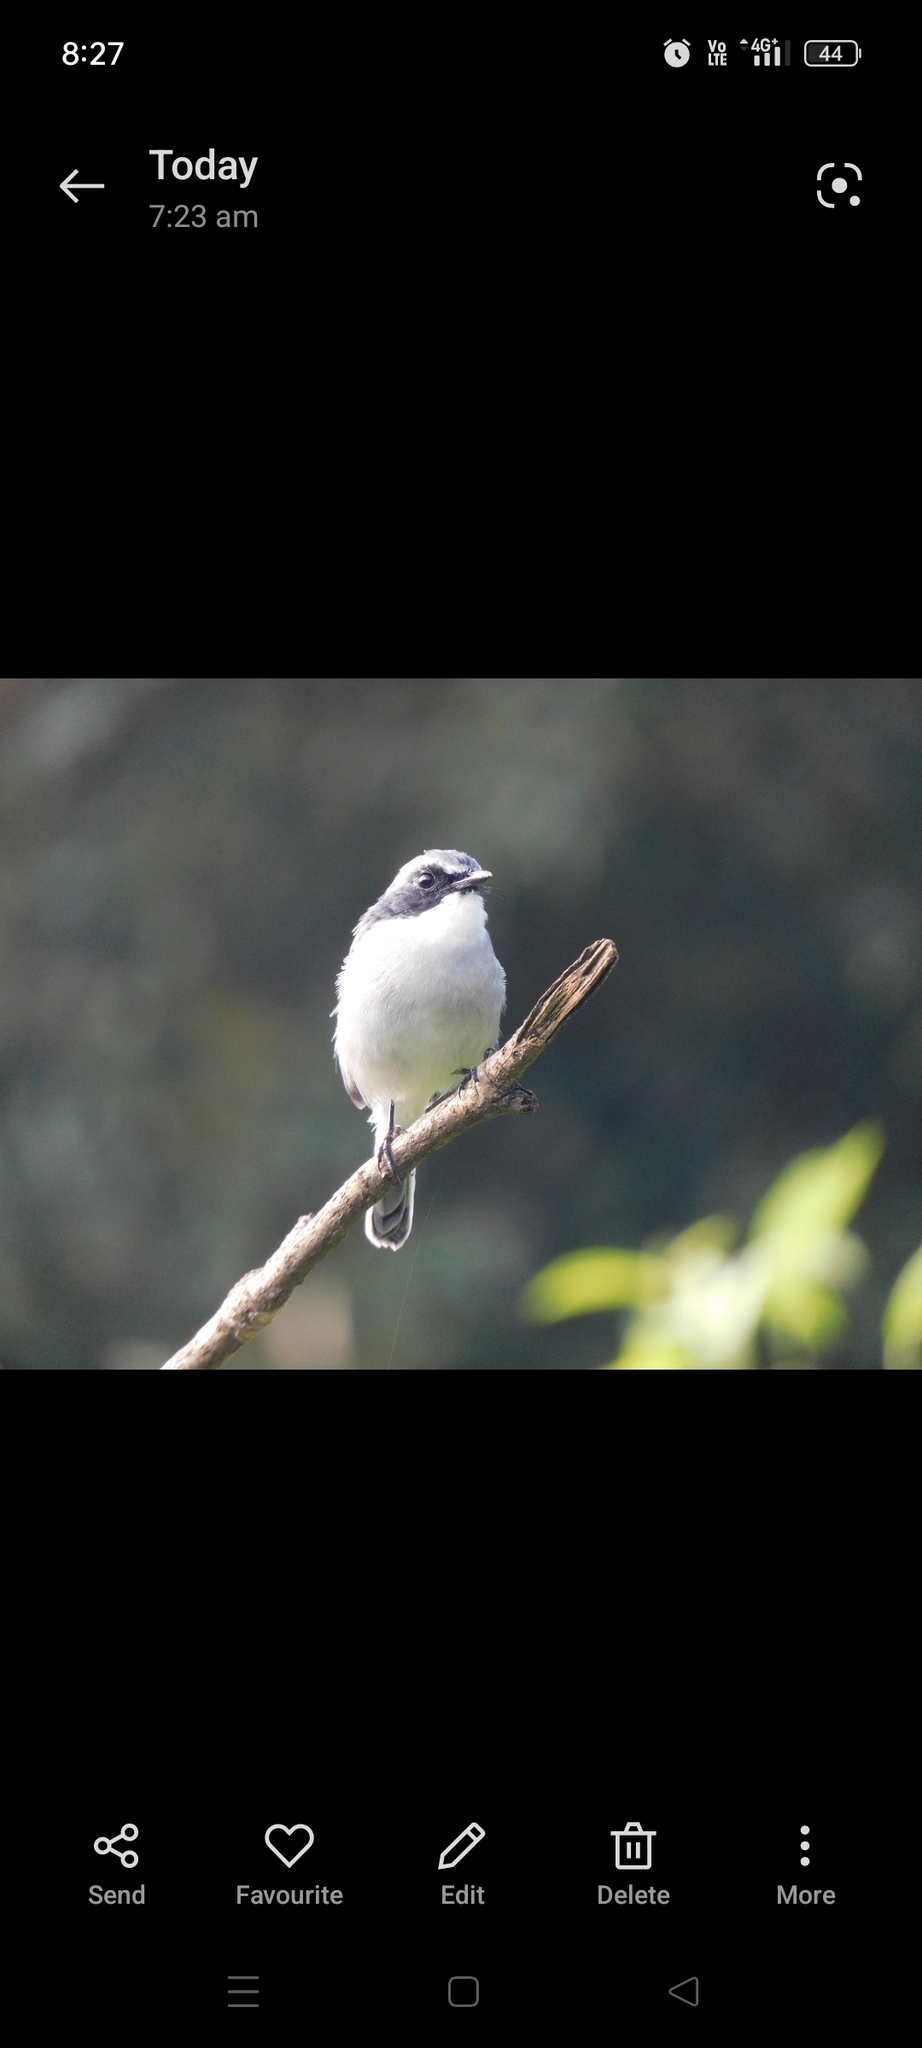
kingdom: Animalia
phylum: Chordata
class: Aves
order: Passeriformes
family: Muscicapidae
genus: Saxicola
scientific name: Saxicola ferreus
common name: Grey bush chat
